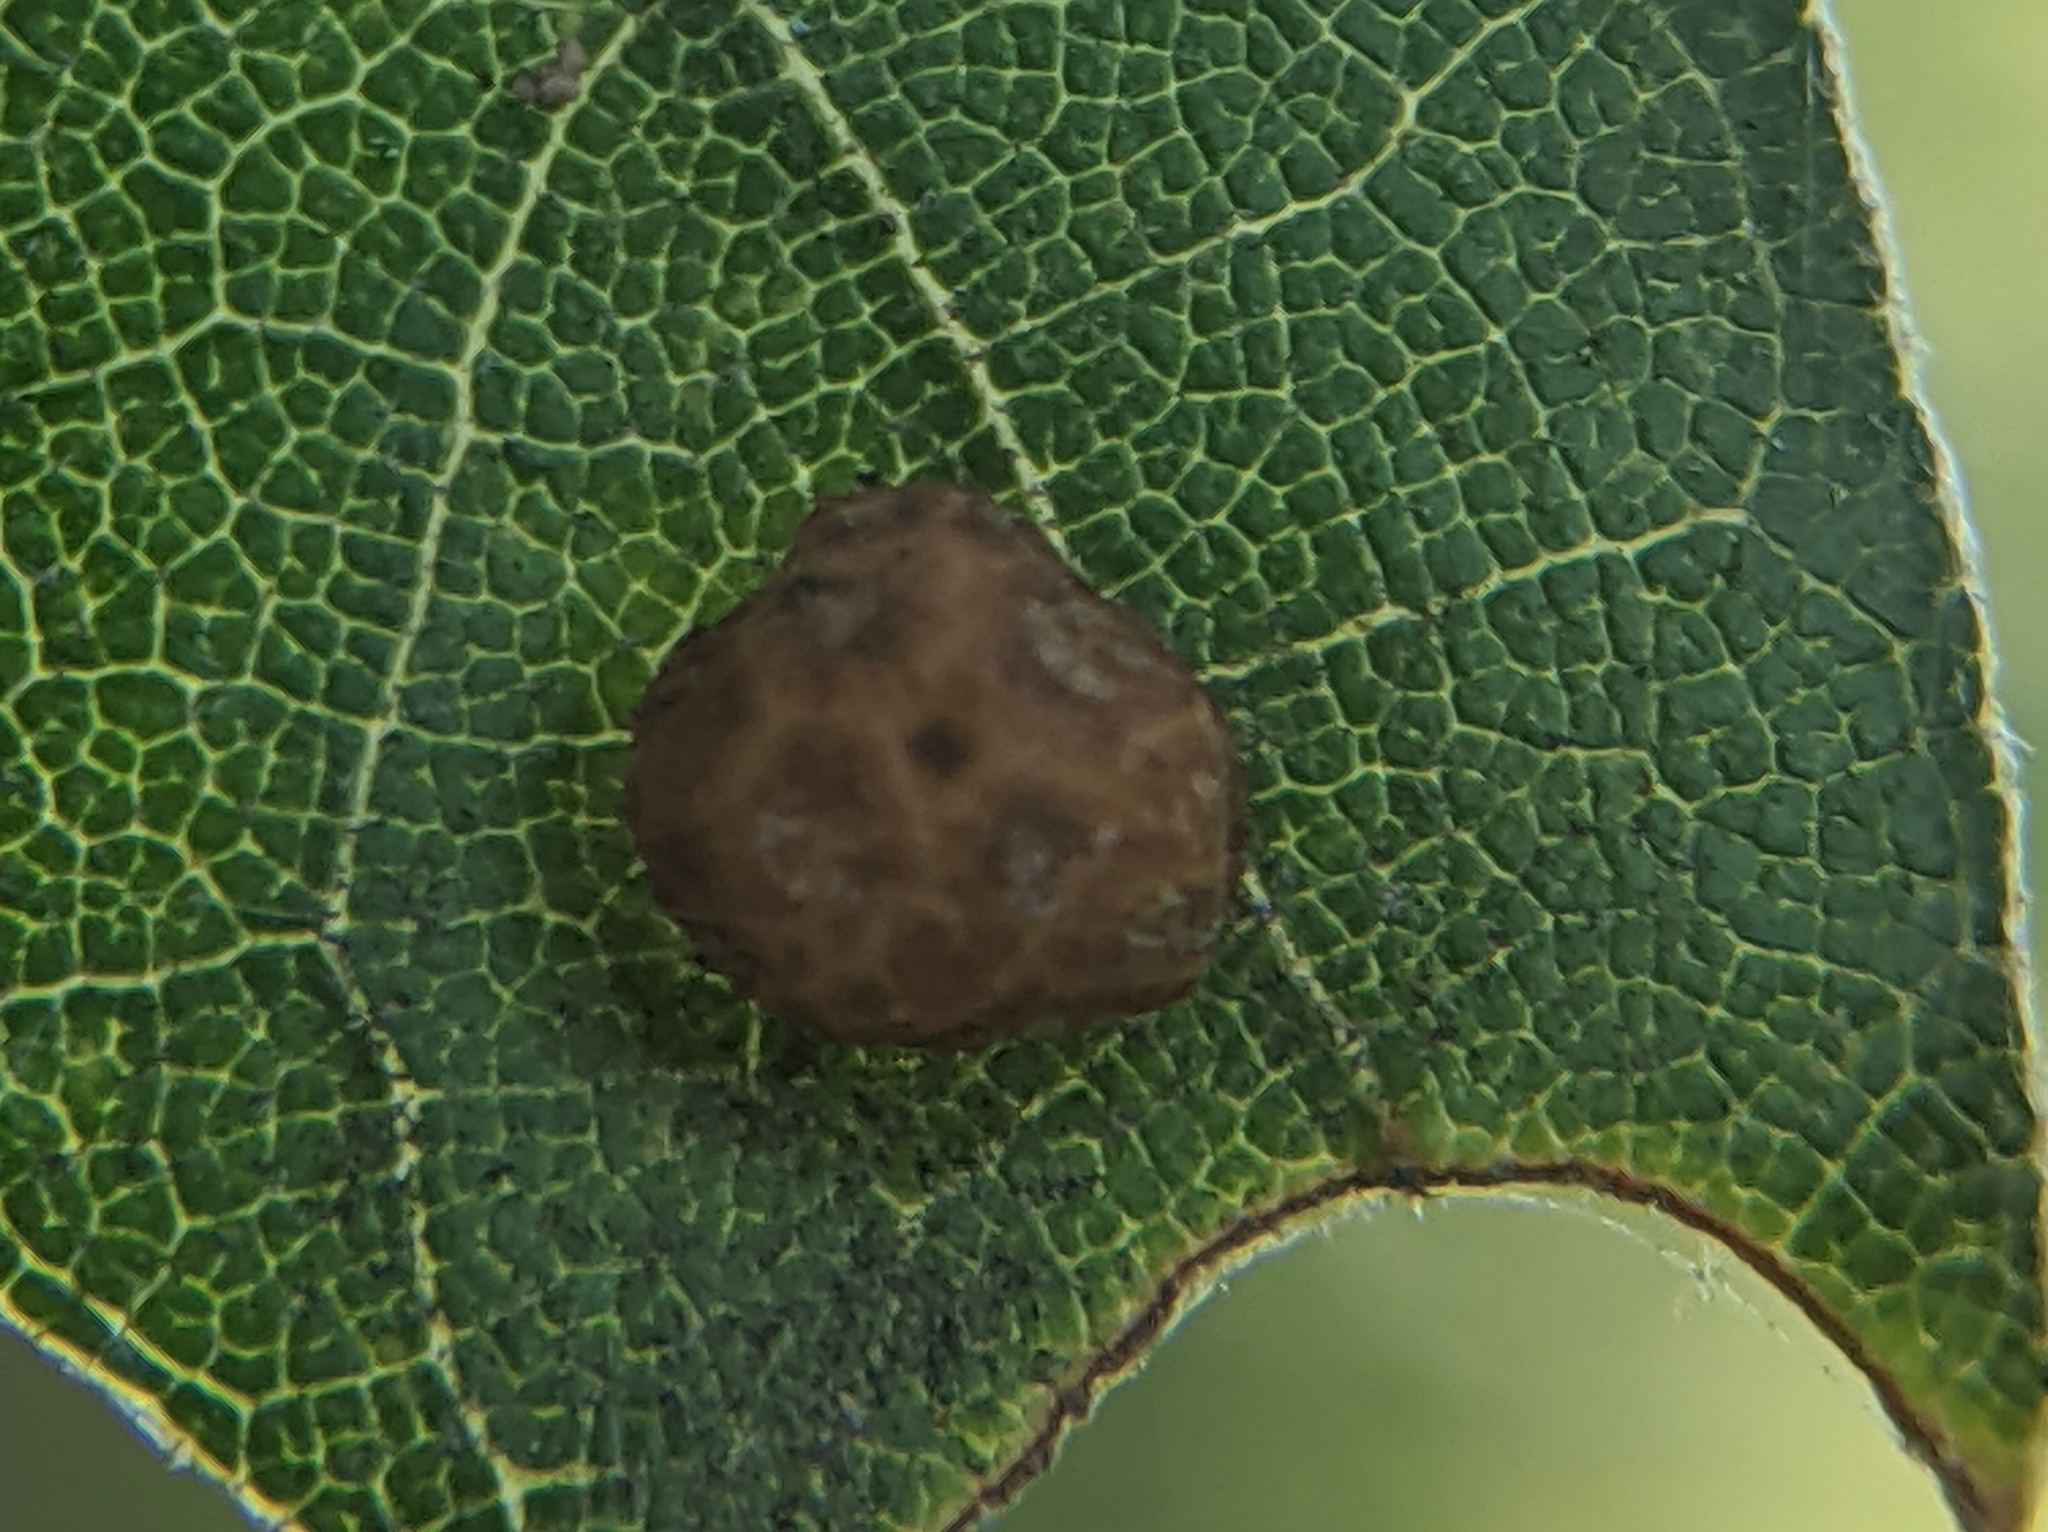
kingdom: Animalia
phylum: Arthropoda
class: Insecta
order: Diptera
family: Cecidomyiidae
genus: Polystepha
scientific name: Polystepha pilulae
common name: Oak leaf gall midge
